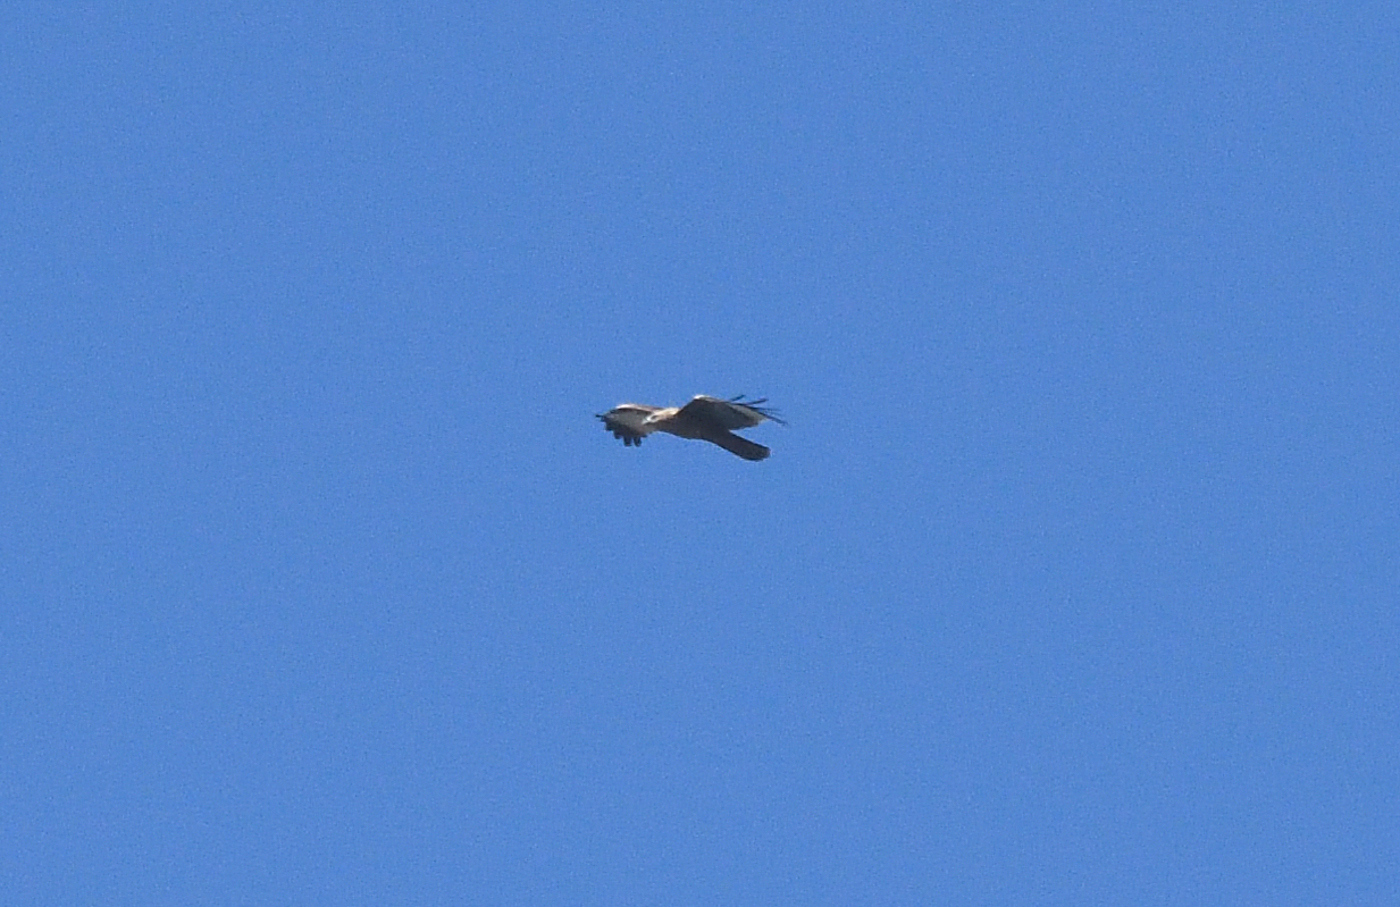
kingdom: Animalia
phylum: Chordata
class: Aves
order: Accipitriformes
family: Accipitridae
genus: Haliastur
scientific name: Haliastur indus
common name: Brahminy kite
